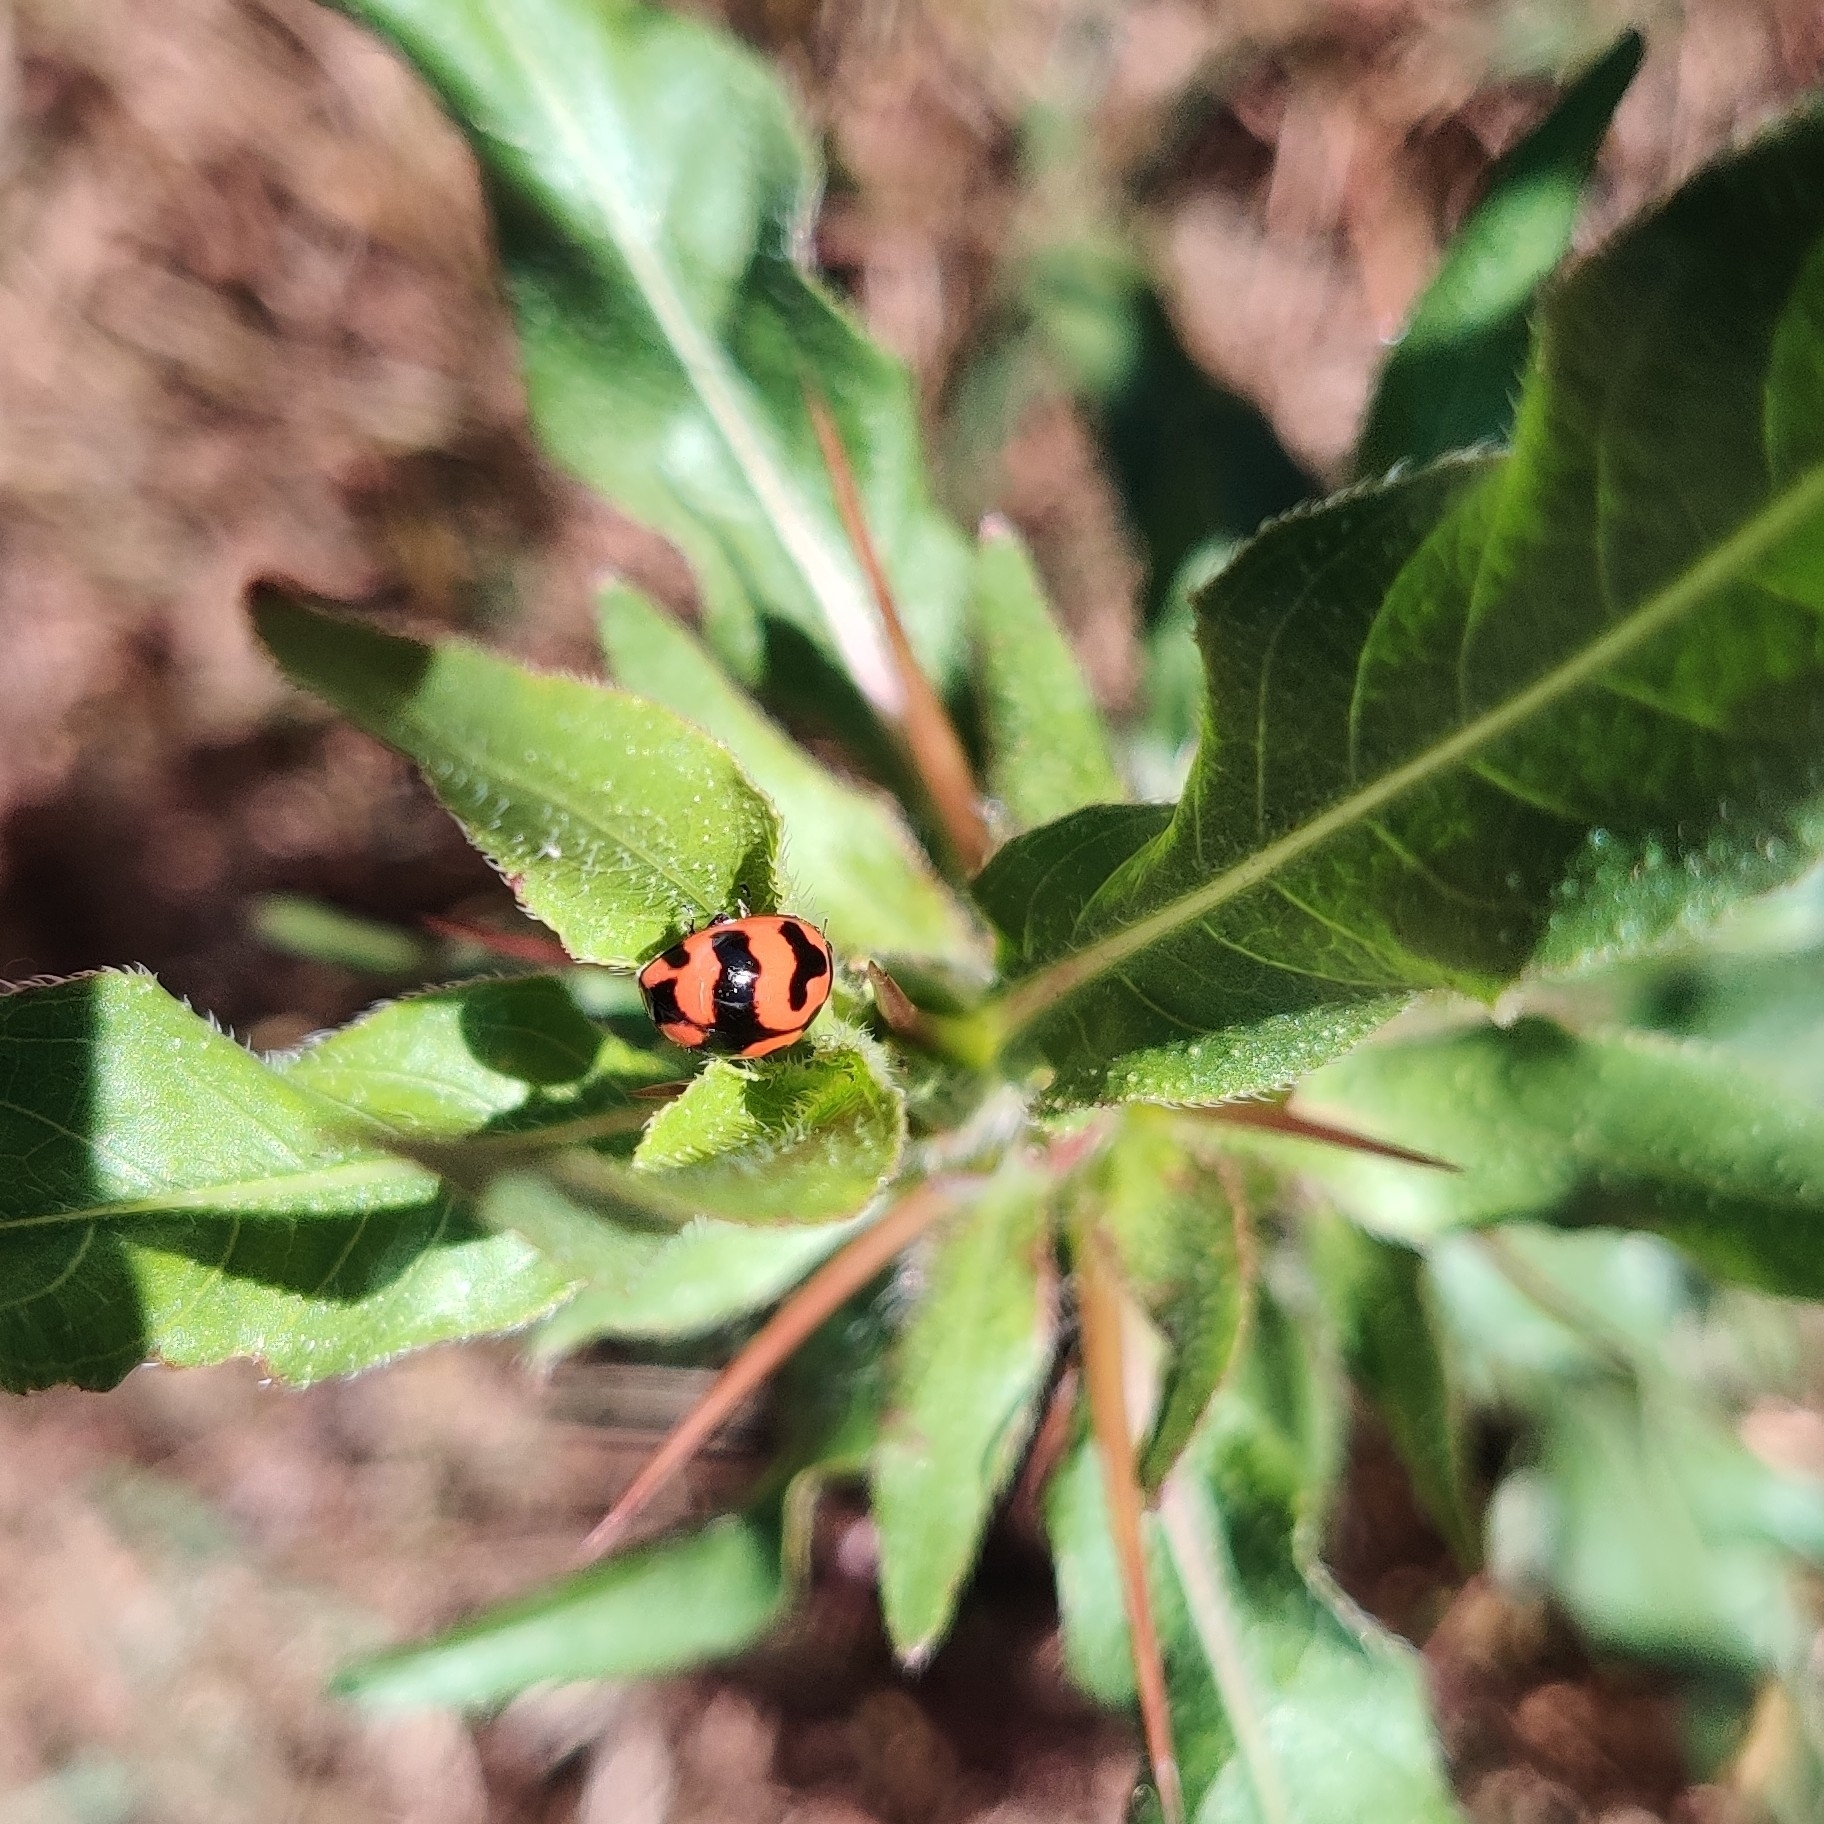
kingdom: Animalia
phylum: Arthropoda
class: Insecta
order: Coleoptera
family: Coccinellidae
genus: Coccinella
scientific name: Coccinella transversalis
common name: Transverse lady beetle
